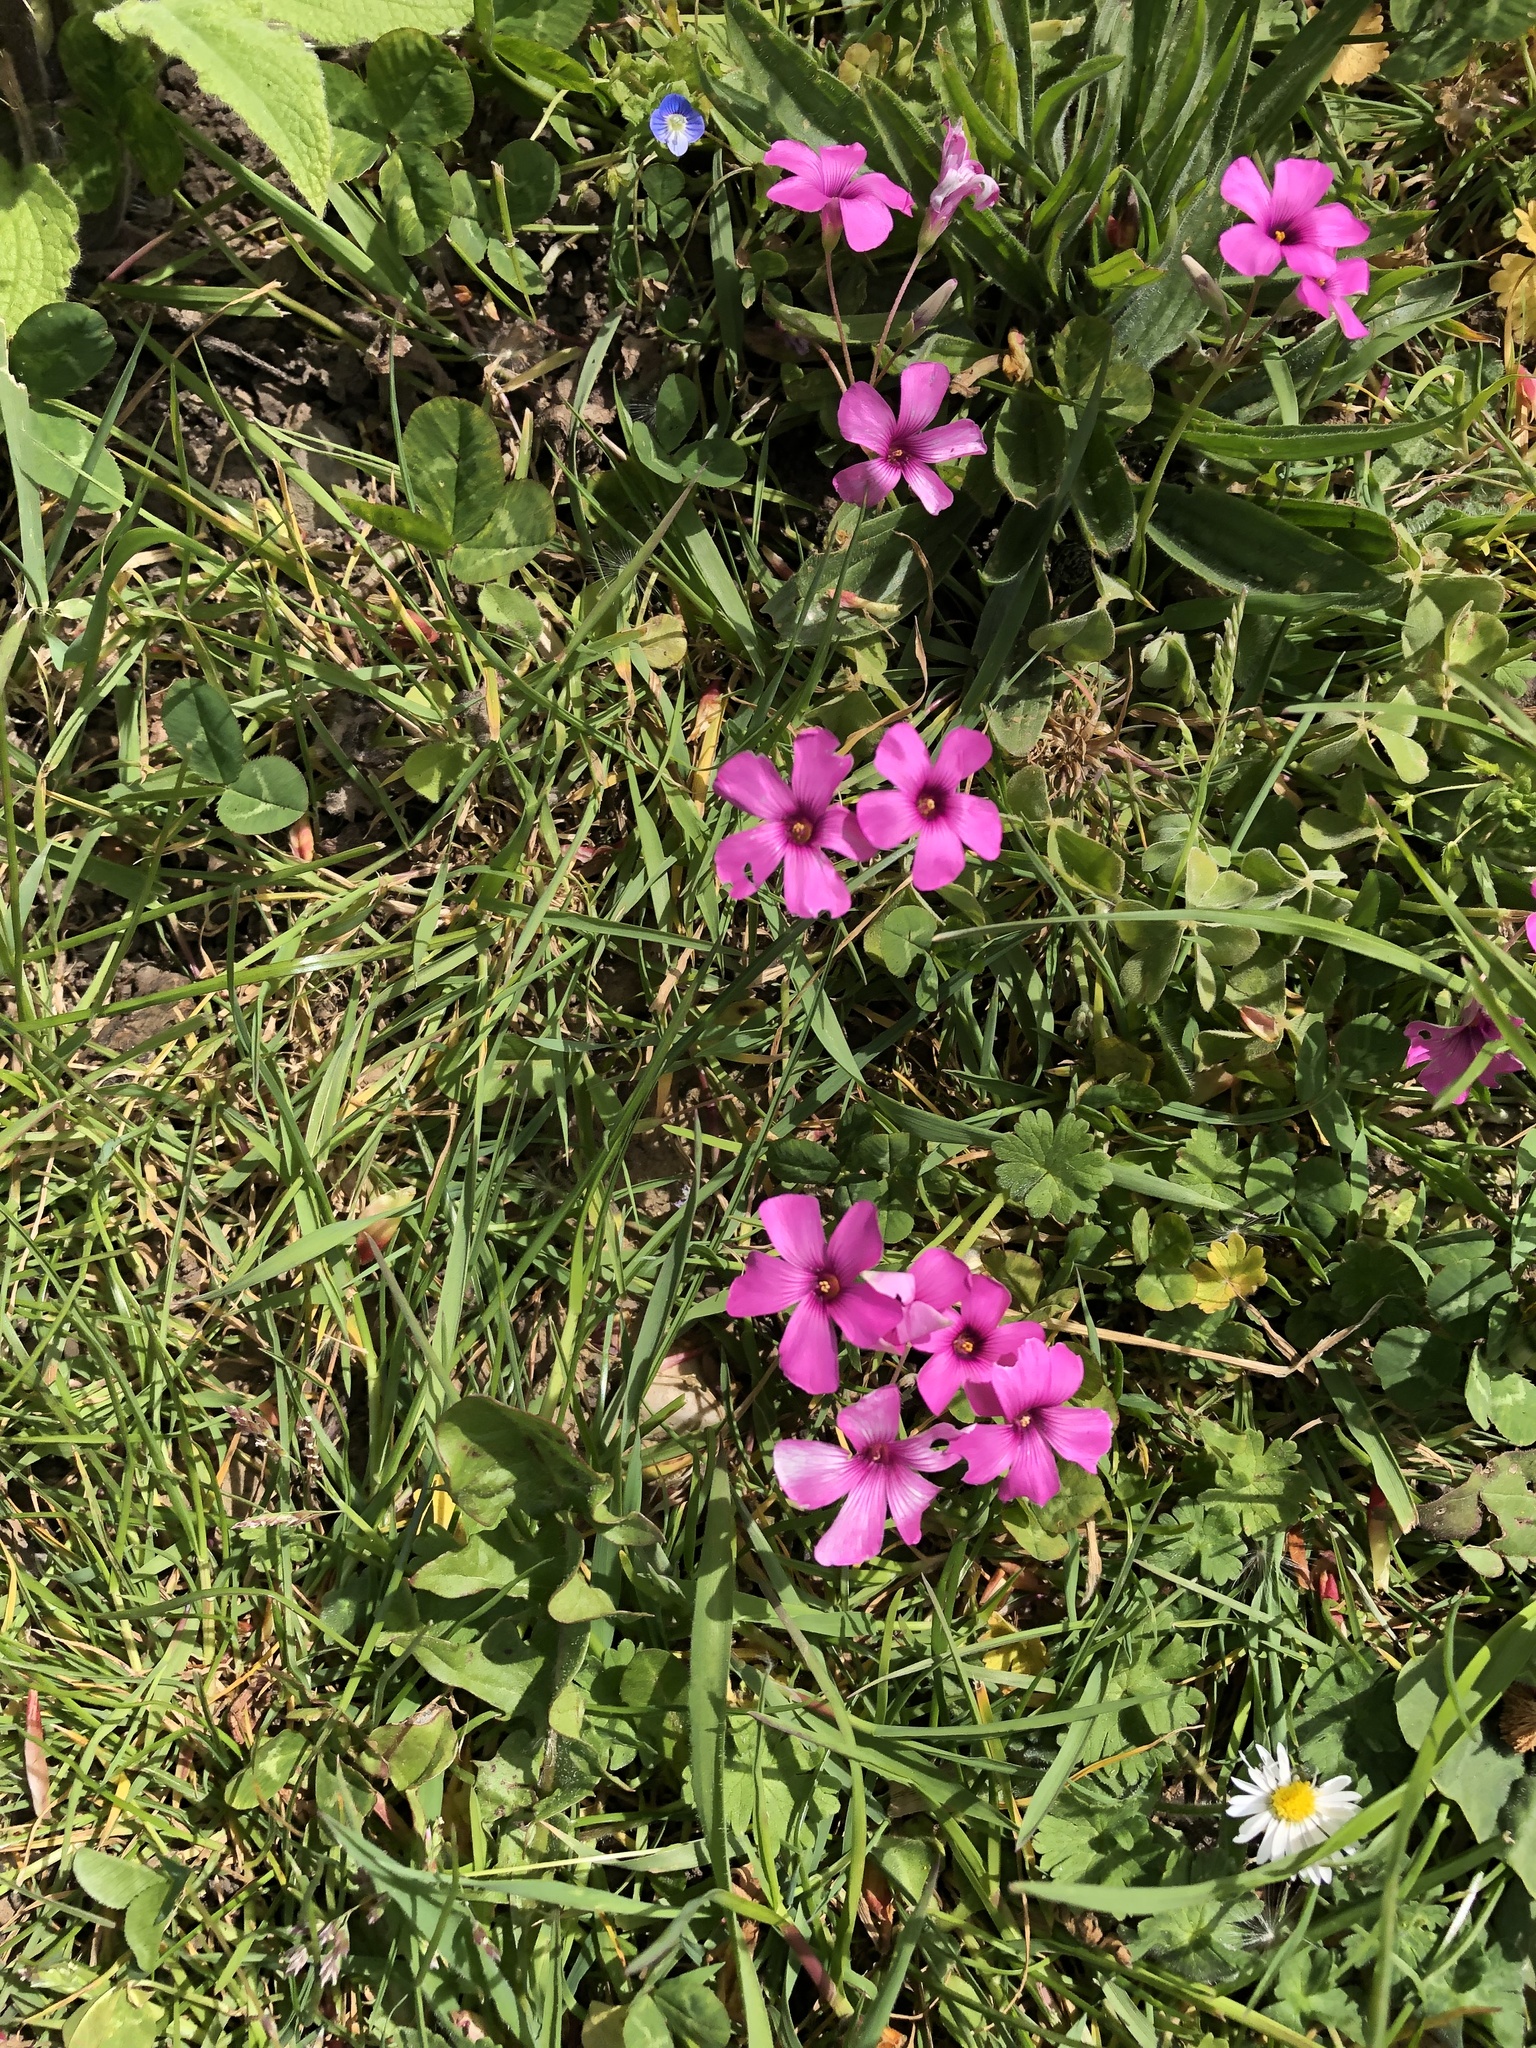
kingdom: Plantae
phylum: Tracheophyta
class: Magnoliopsida
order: Oxalidales
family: Oxalidaceae
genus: Oxalis
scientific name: Oxalis articulata
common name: Pink-sorrel
